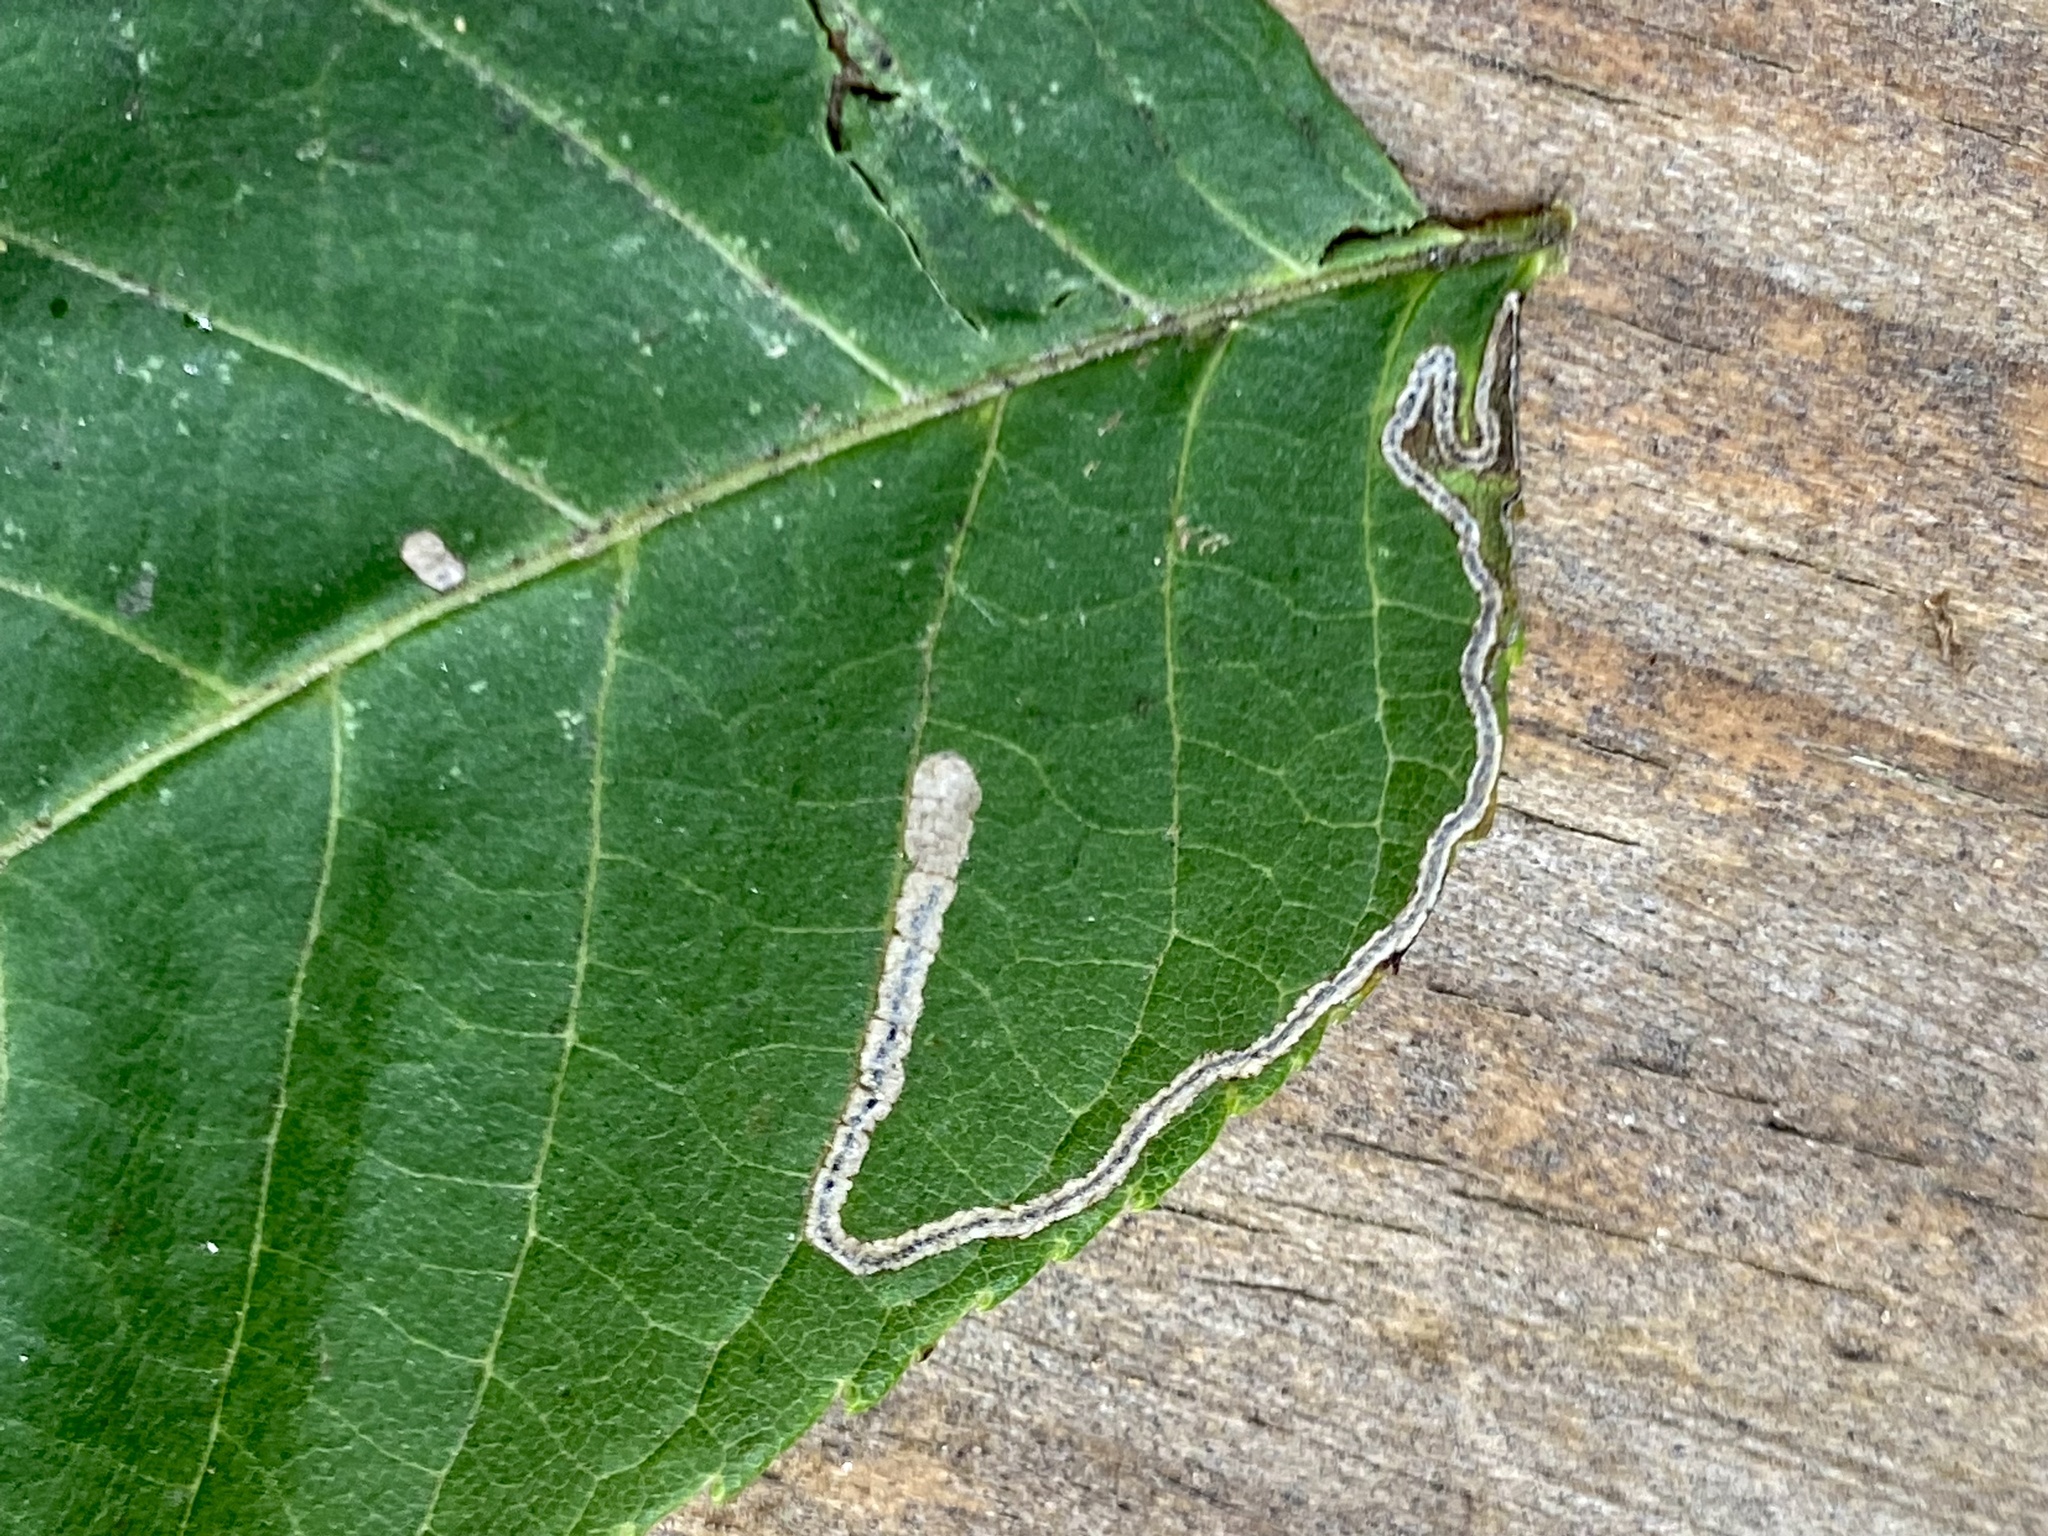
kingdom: Animalia
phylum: Arthropoda
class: Insecta
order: Lepidoptera
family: Nepticulidae
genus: Stigmella
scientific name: Stigmella juglandifoliella
